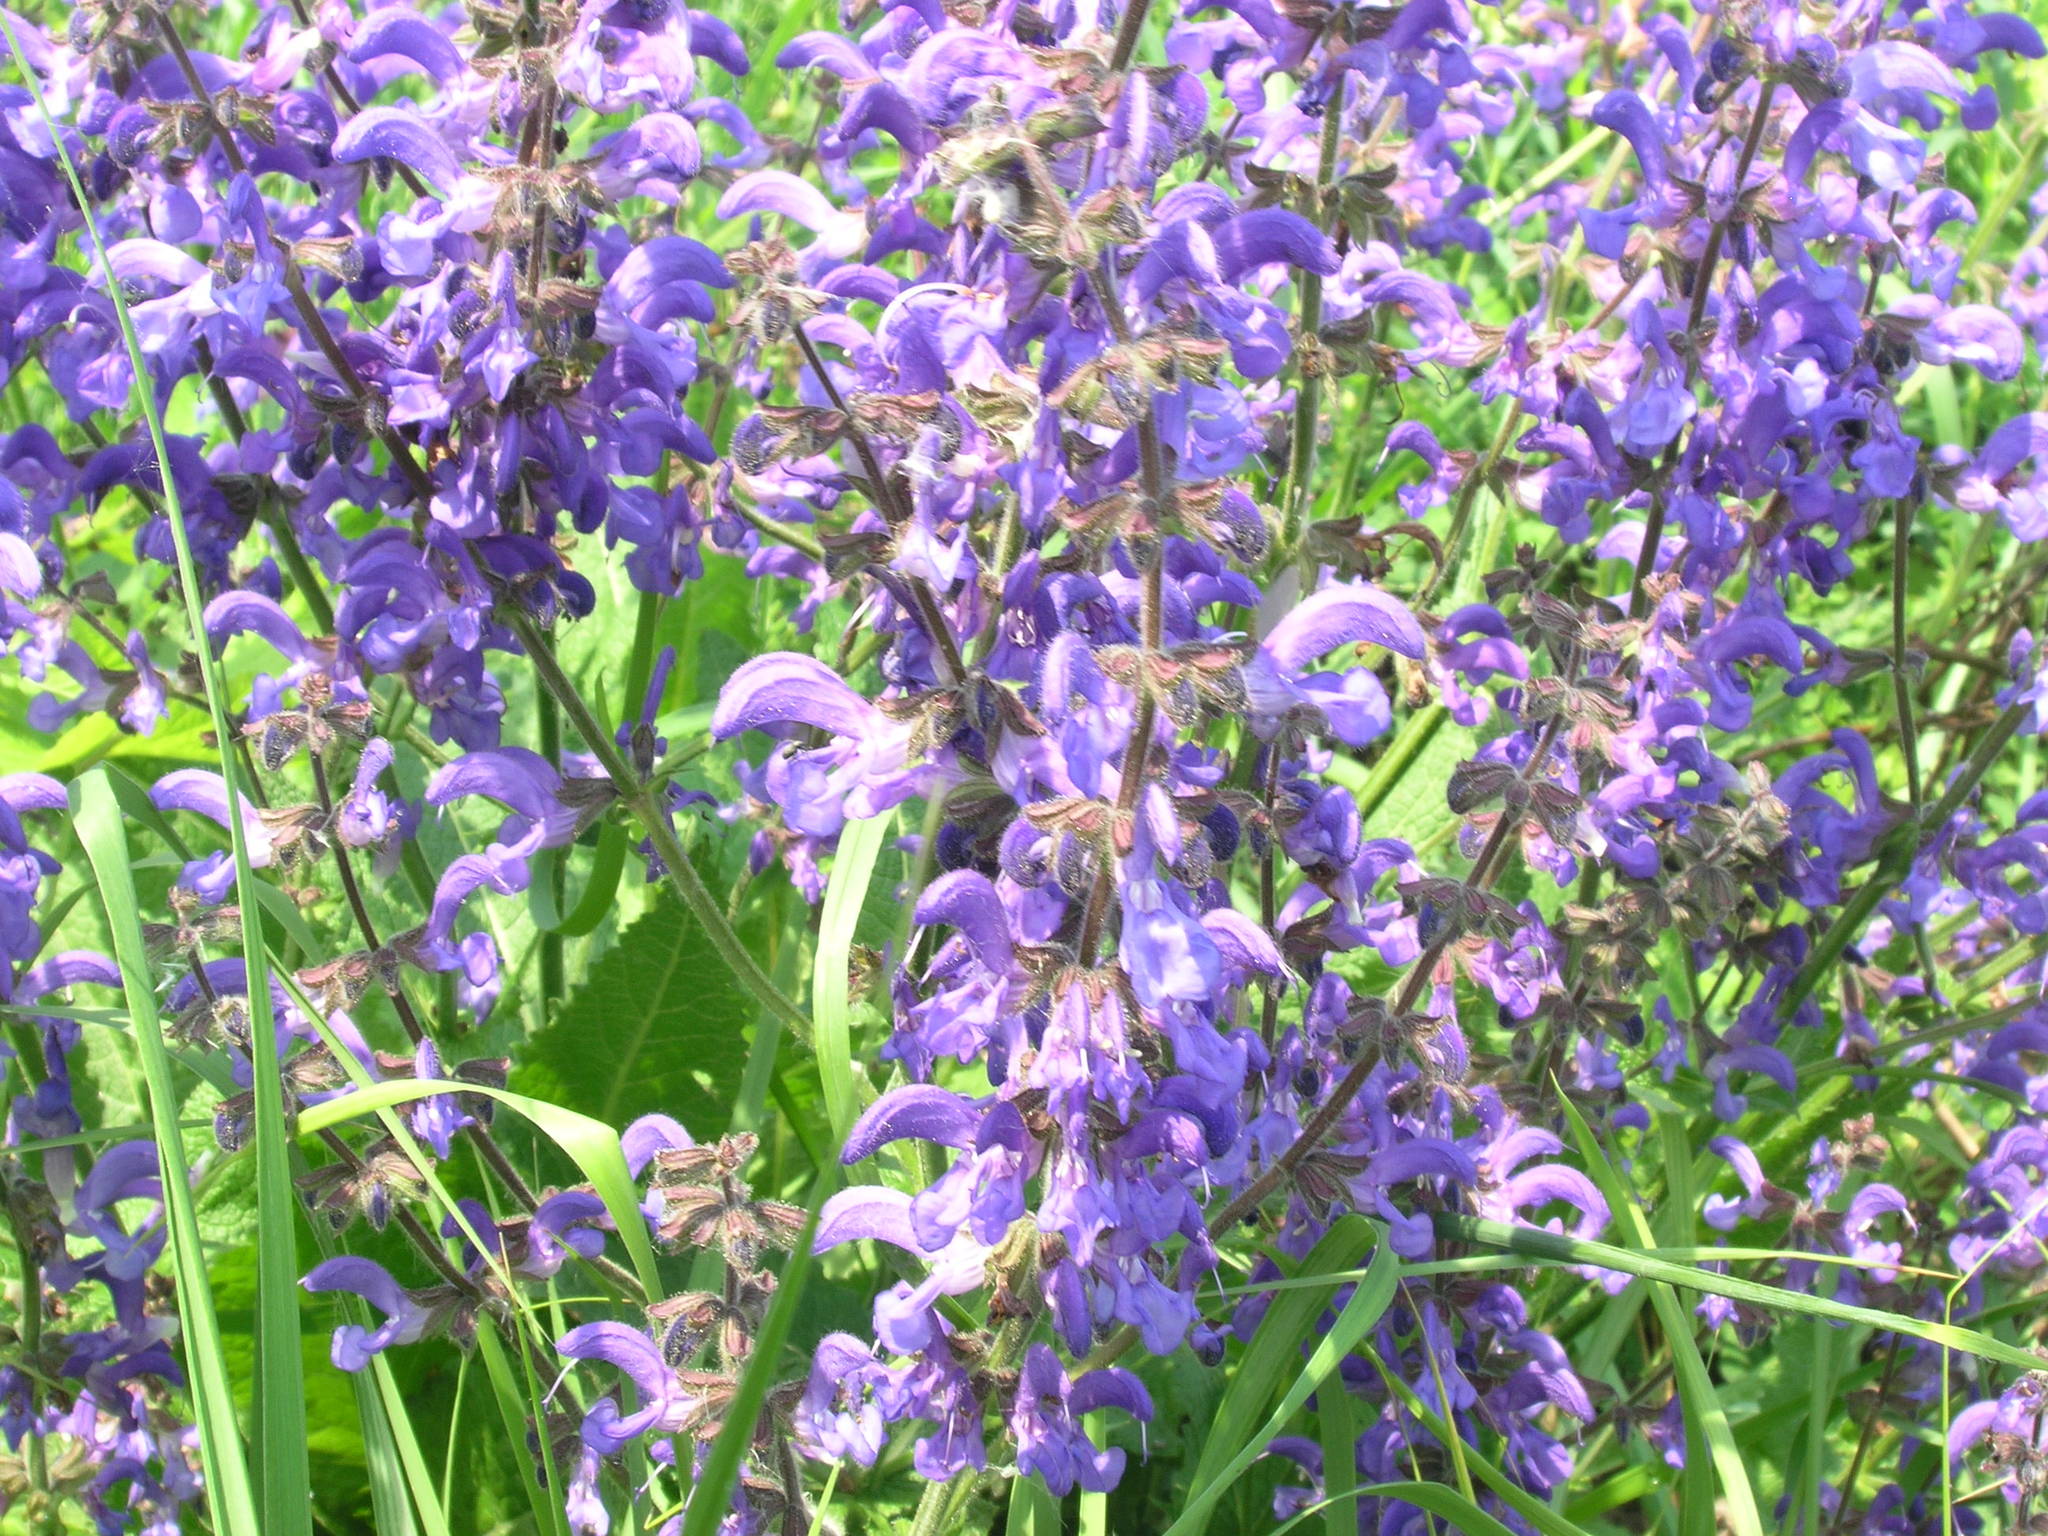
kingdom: Plantae
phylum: Tracheophyta
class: Magnoliopsida
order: Lamiales
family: Lamiaceae
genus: Salvia
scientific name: Salvia pratensis
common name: Meadow sage
